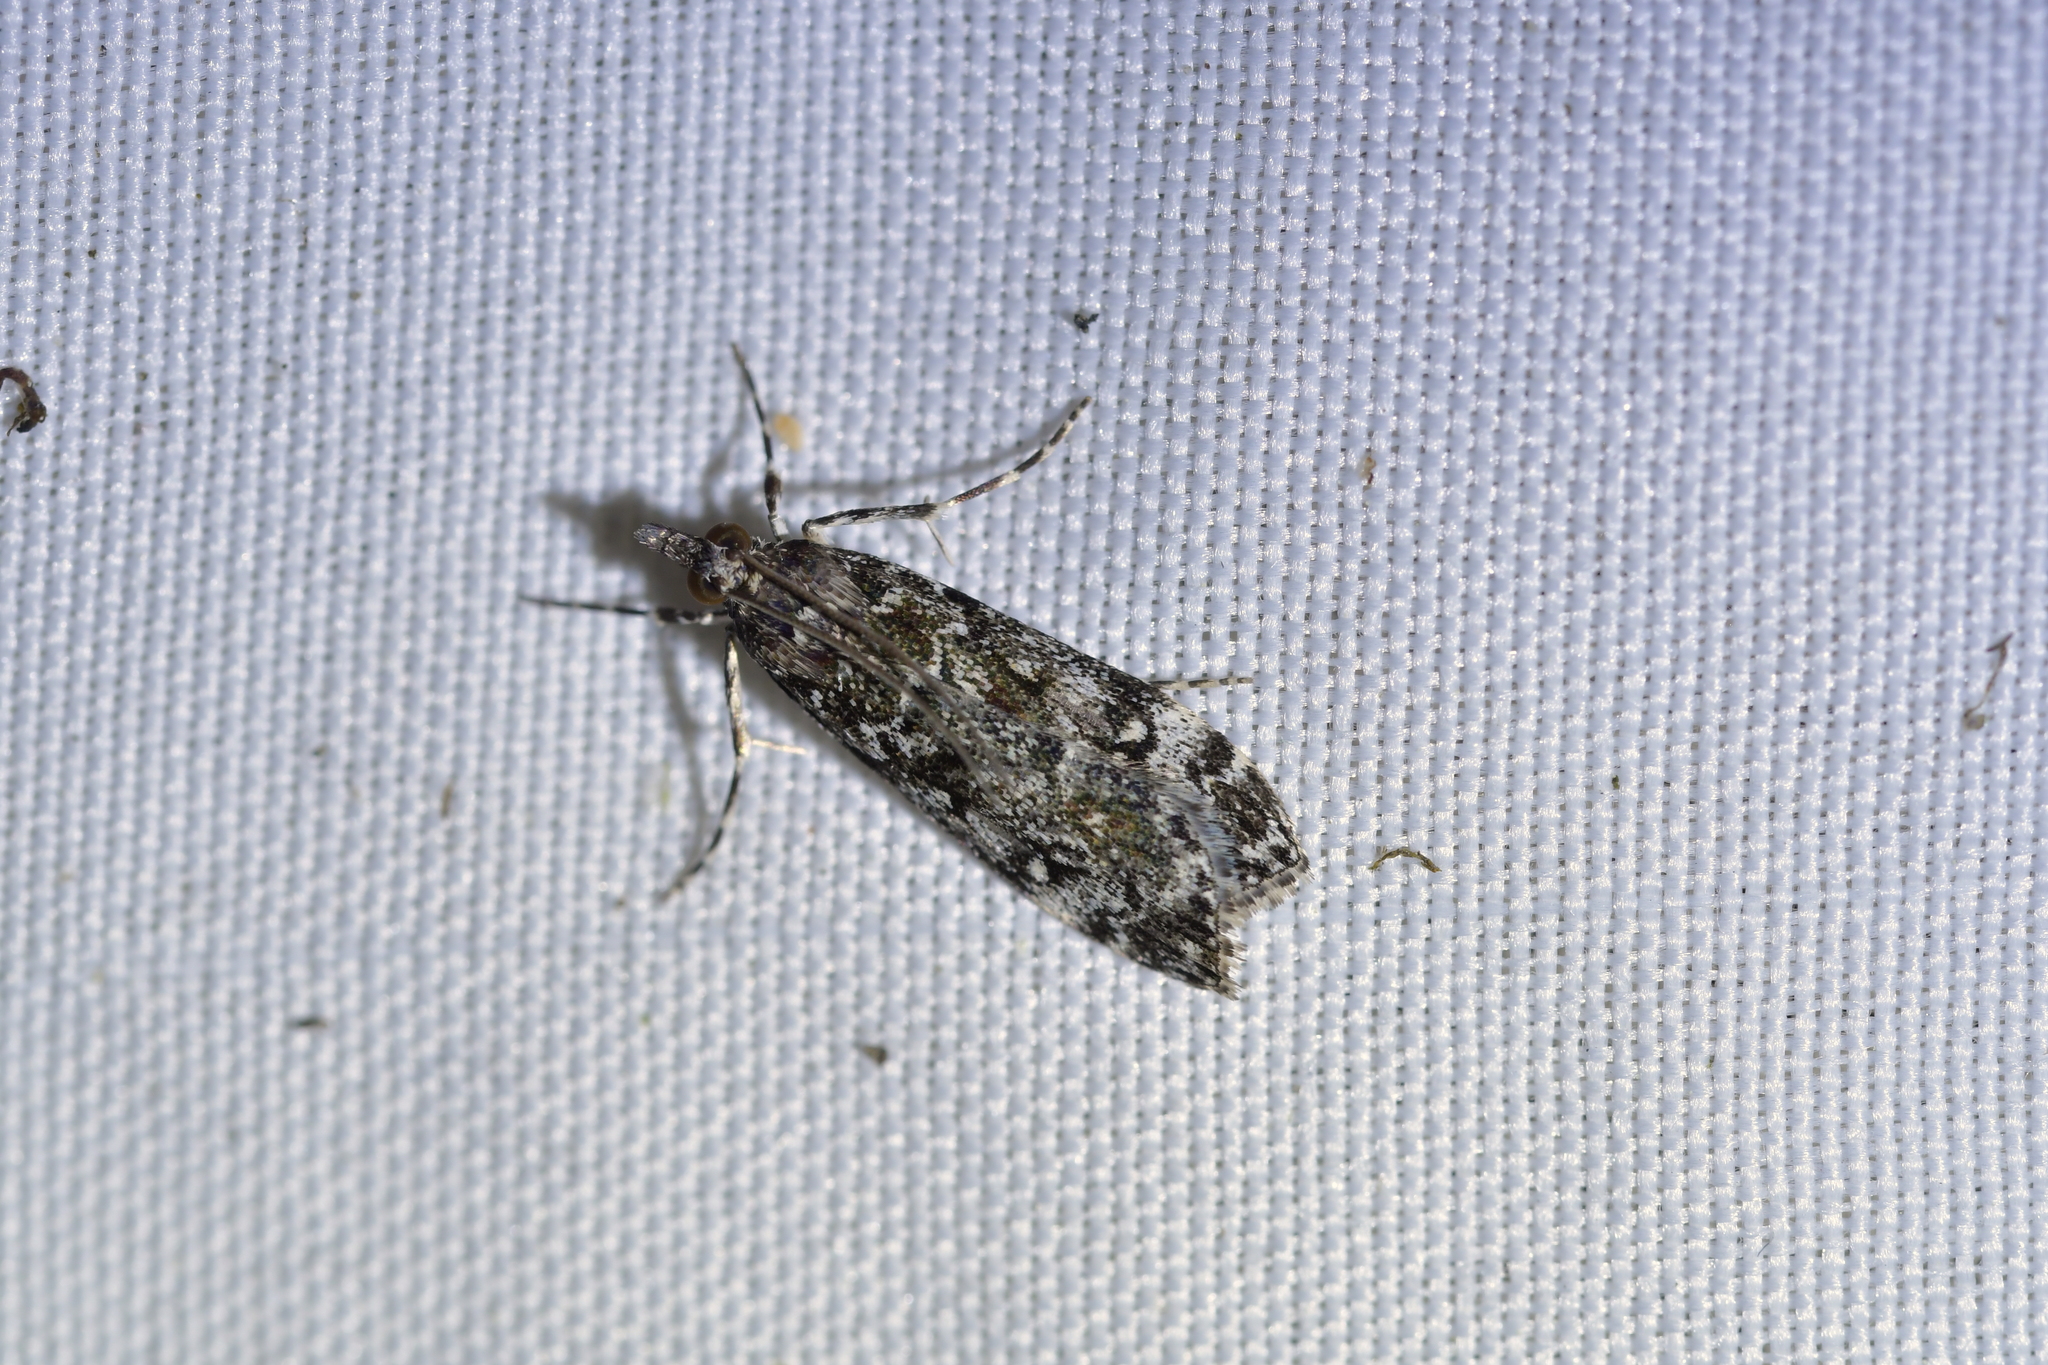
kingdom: Animalia
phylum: Arthropoda
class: Insecta
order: Lepidoptera
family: Crambidae
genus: Eudonia
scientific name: Eudonia philerga
